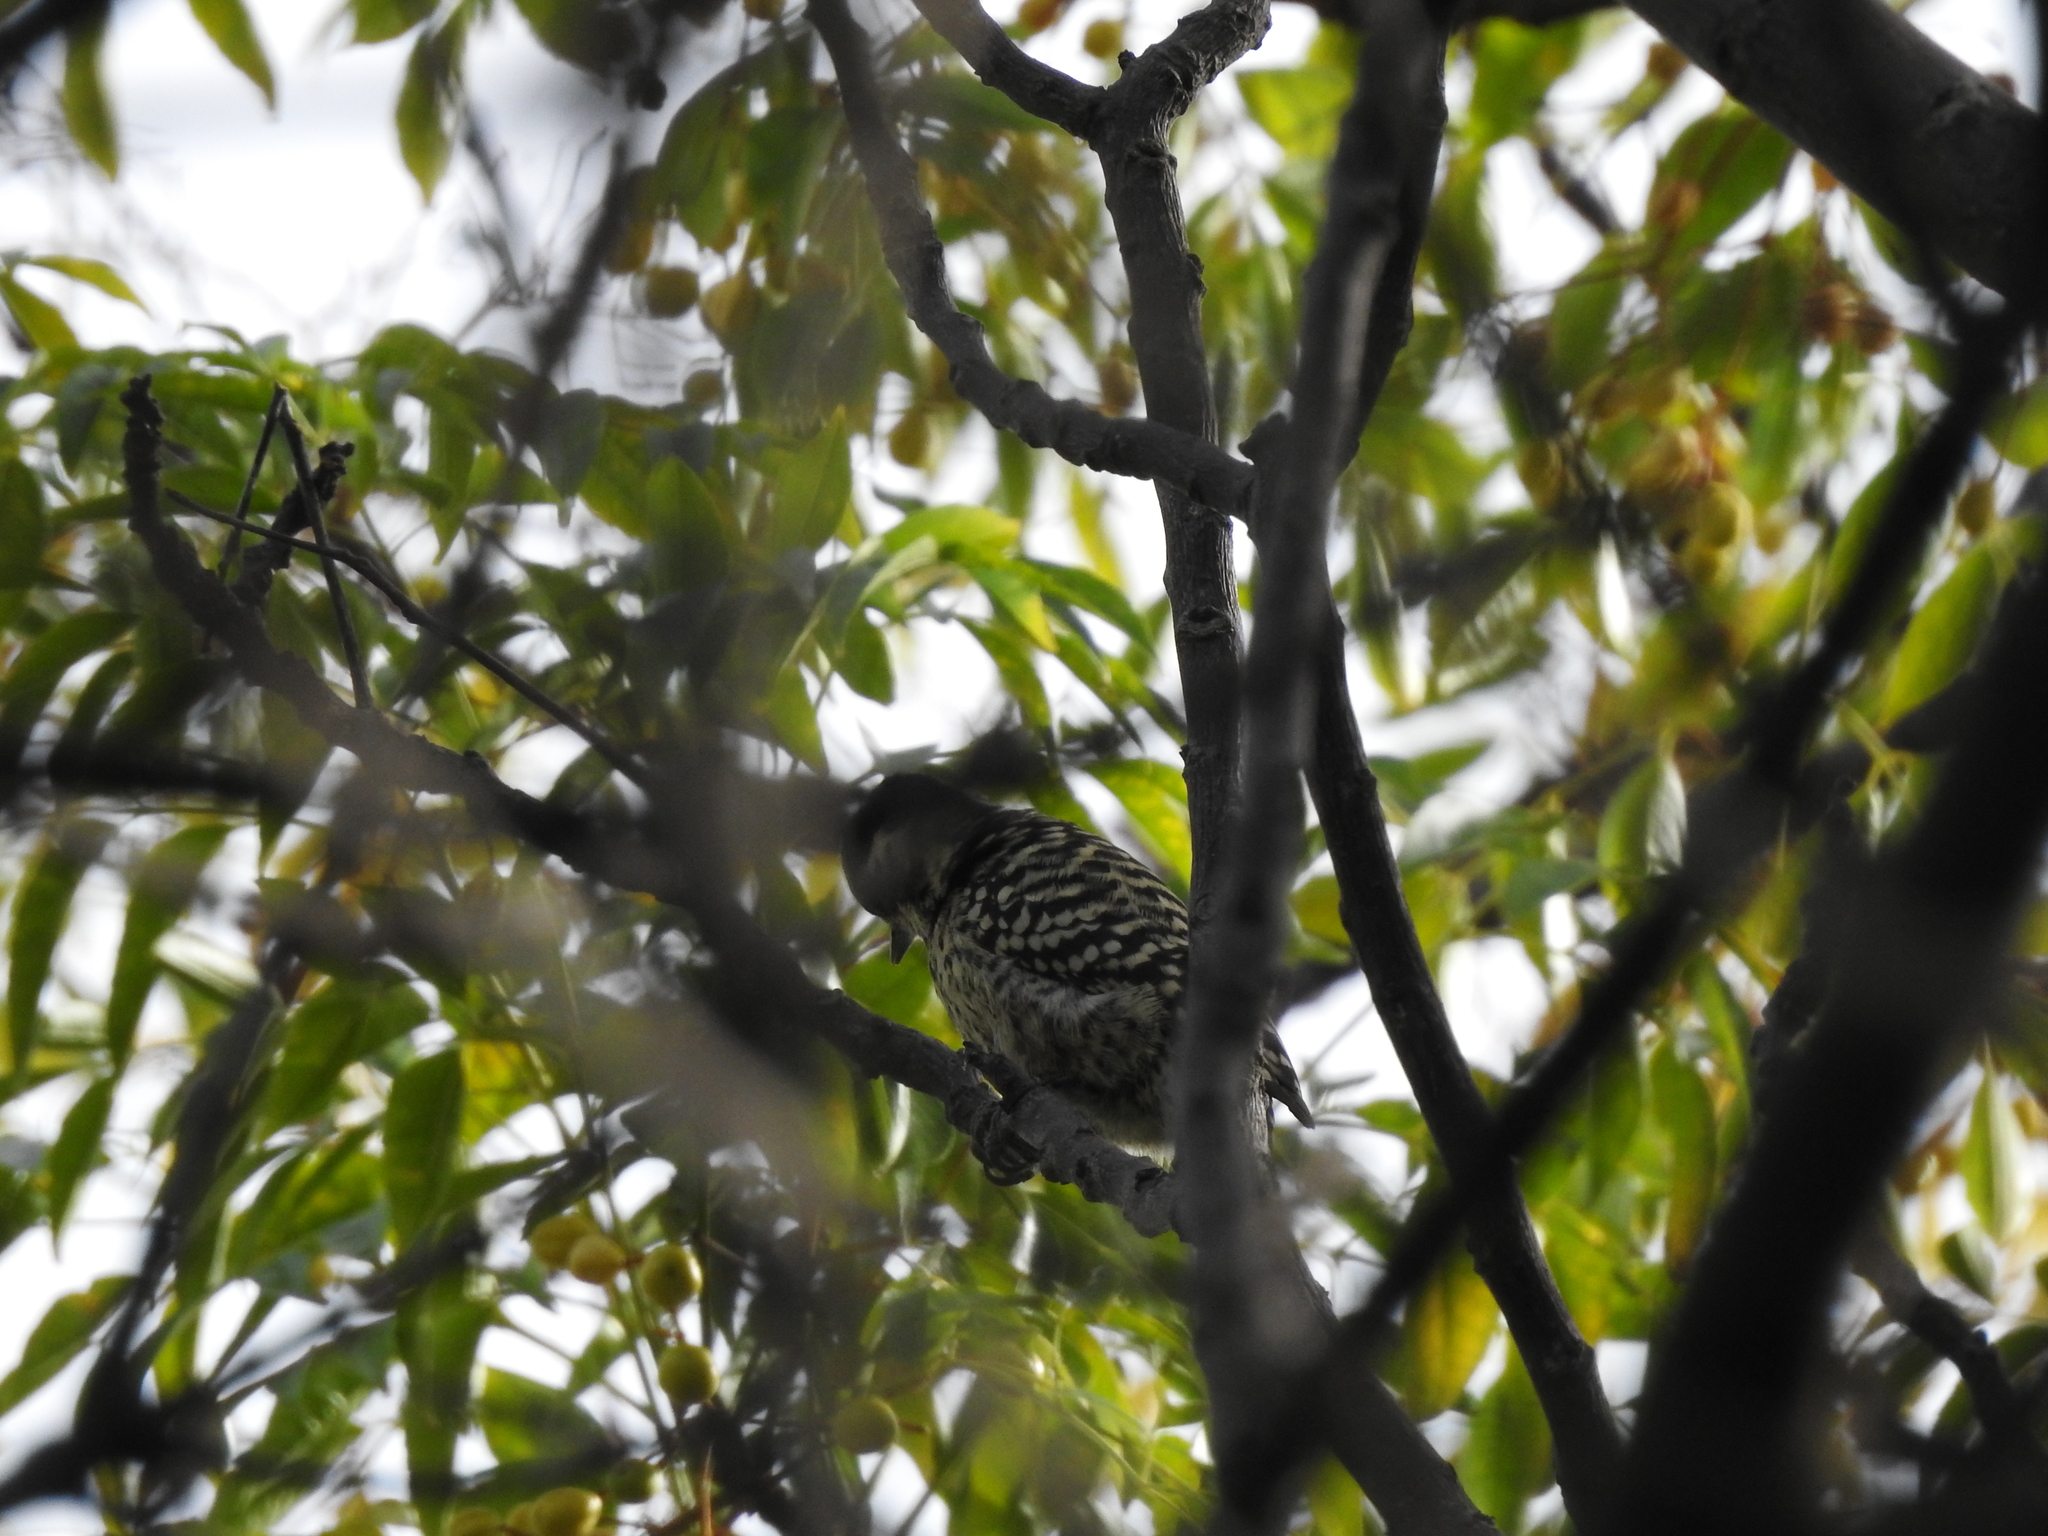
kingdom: Animalia
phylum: Chordata
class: Aves
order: Piciformes
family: Picidae
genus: Veniliornis
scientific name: Veniliornis mixtus
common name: Checkered woodpecker
